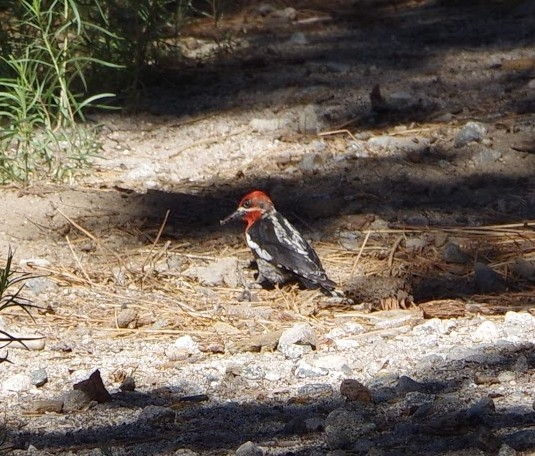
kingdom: Animalia
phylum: Chordata
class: Aves
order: Piciformes
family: Picidae
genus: Sphyrapicus
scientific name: Sphyrapicus ruber
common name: Red-breasted sapsucker
